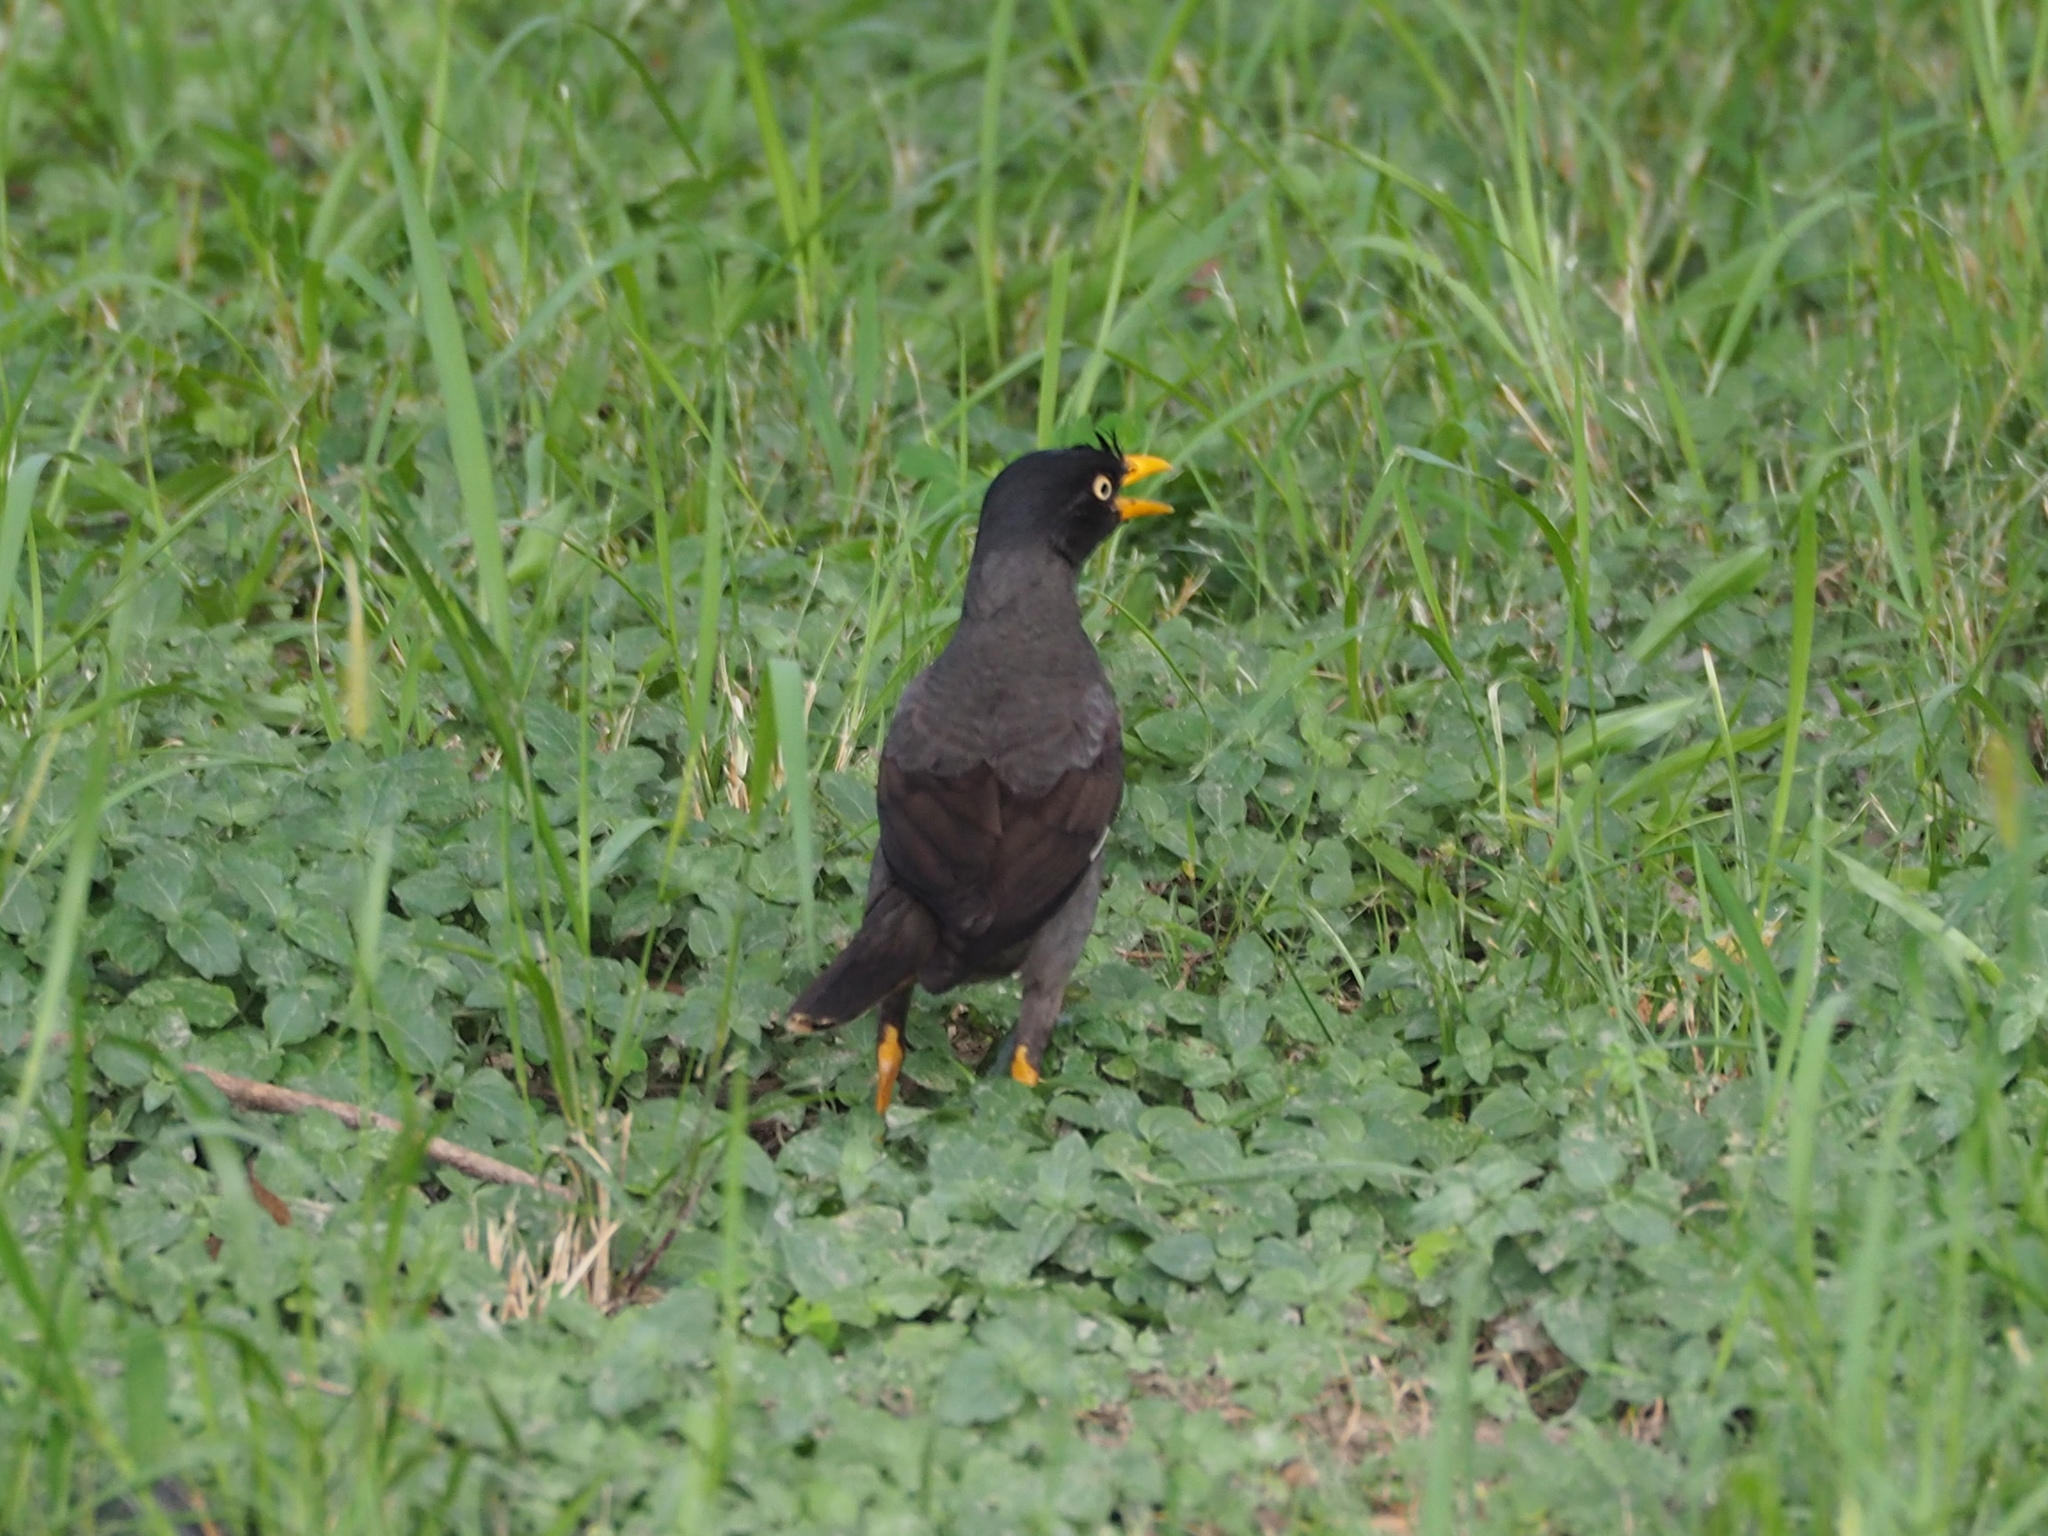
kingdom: Animalia
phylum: Chordata
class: Aves
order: Passeriformes
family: Sturnidae
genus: Acridotheres
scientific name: Acridotheres javanicus
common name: Javan myna
